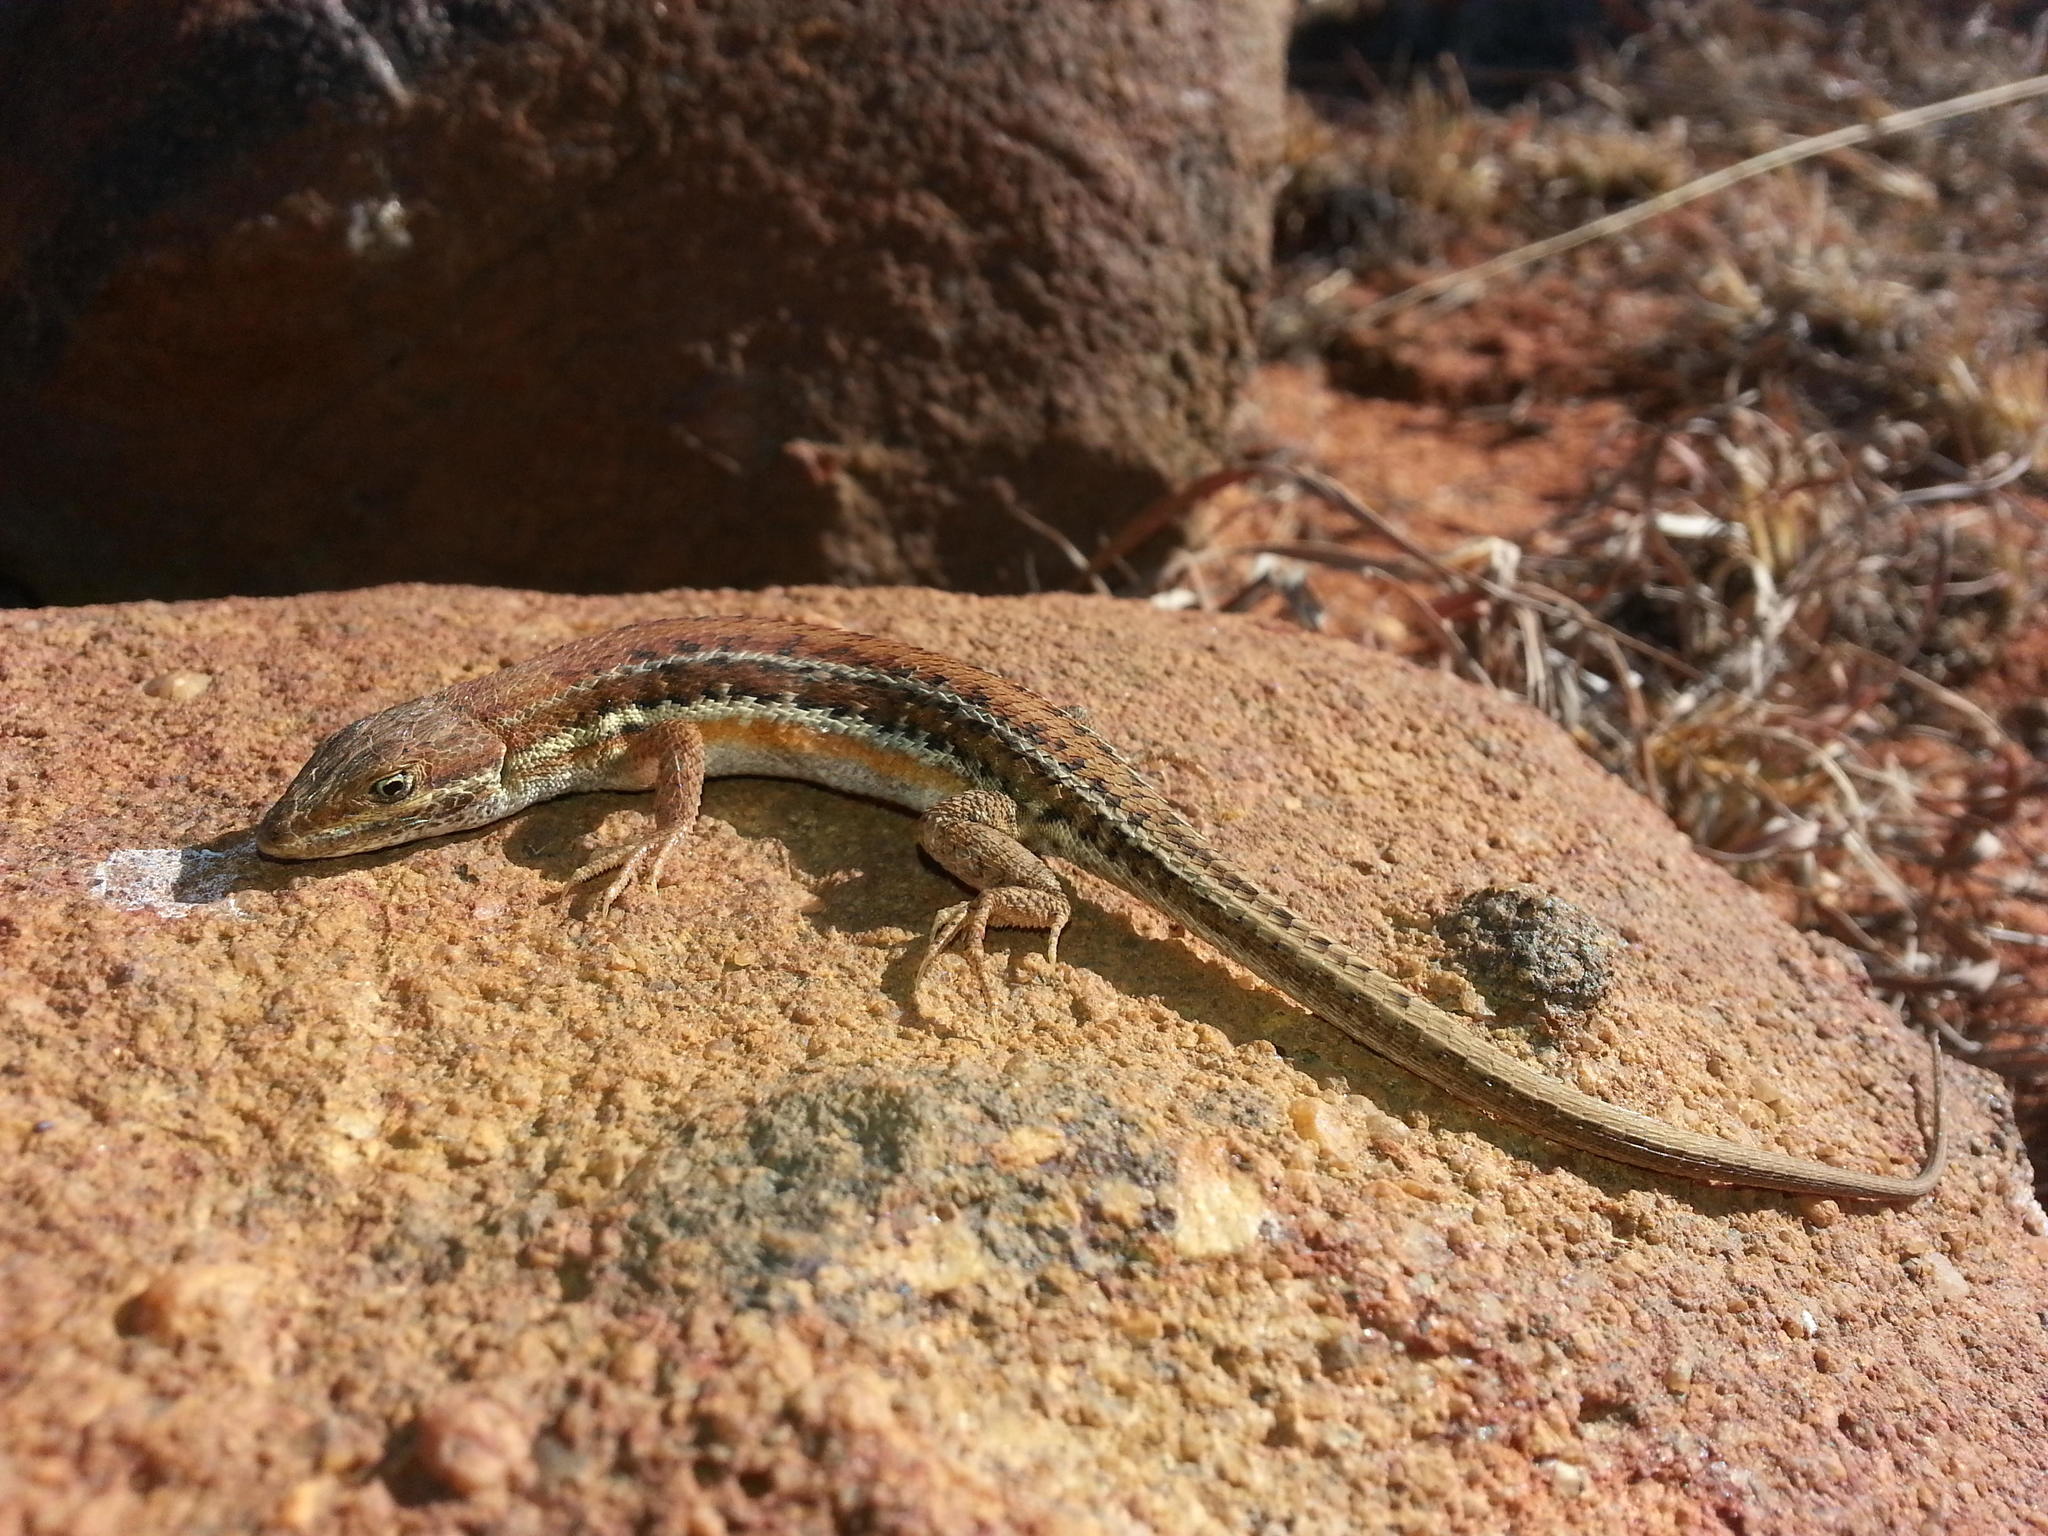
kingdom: Animalia
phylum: Chordata
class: Squamata
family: Lacertidae
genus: Meroles
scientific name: Meroles squamulosus
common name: Common desert lizard
